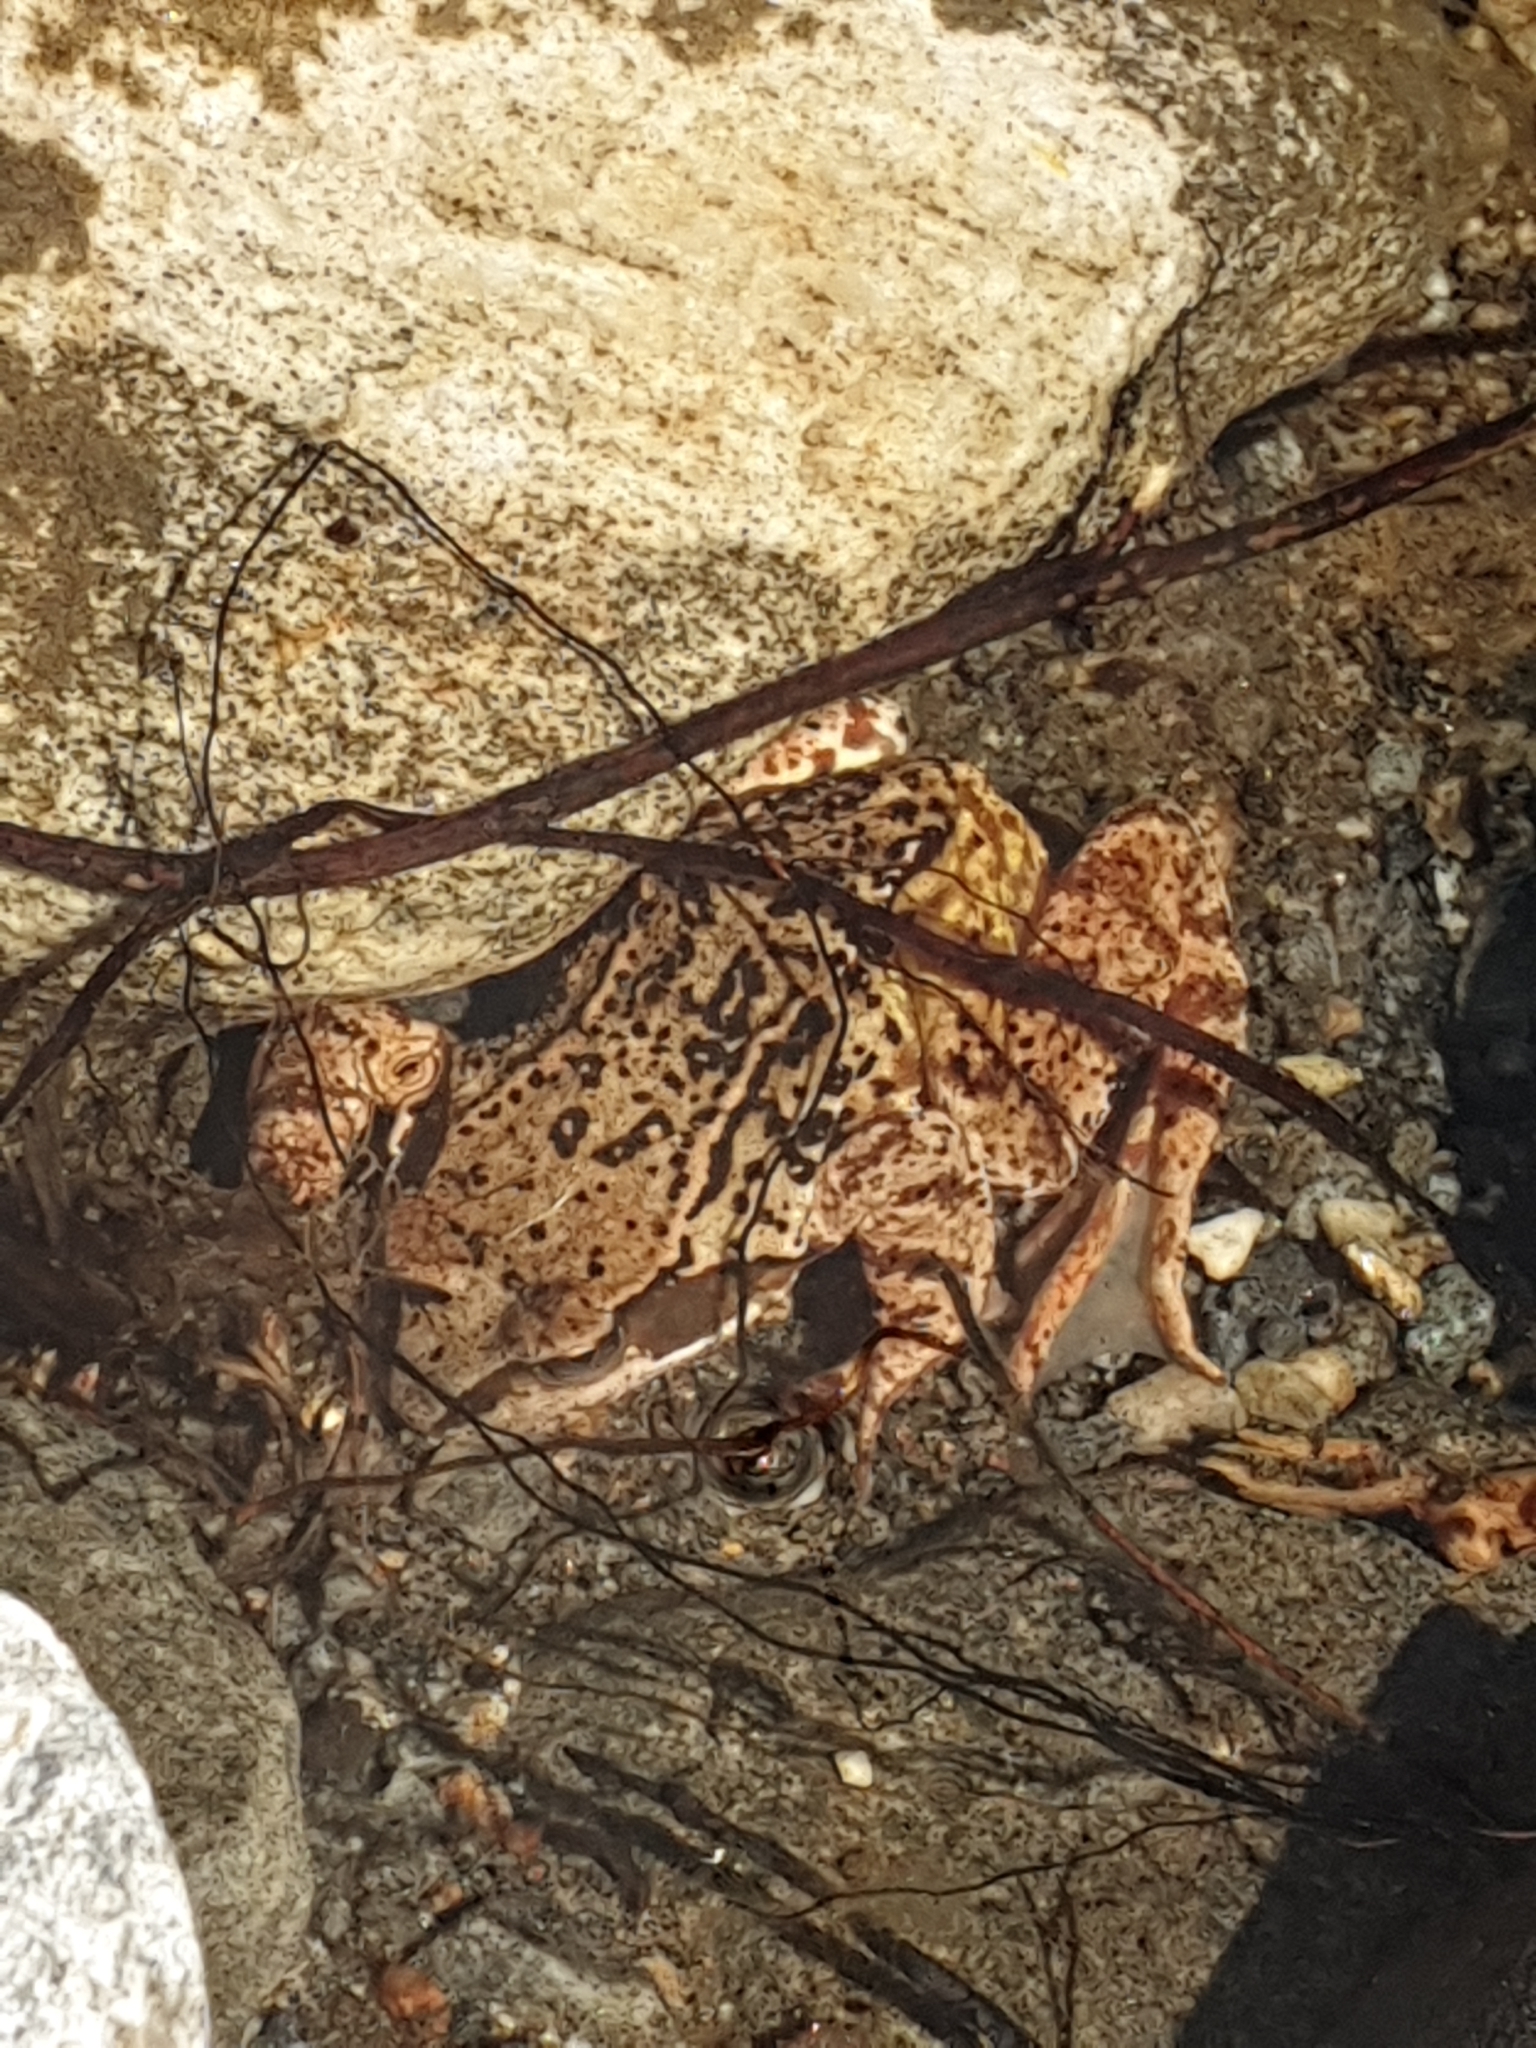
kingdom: Animalia
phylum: Chordata
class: Amphibia
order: Anura
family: Ranidae
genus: Rana
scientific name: Rana temporaria
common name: Common frog
